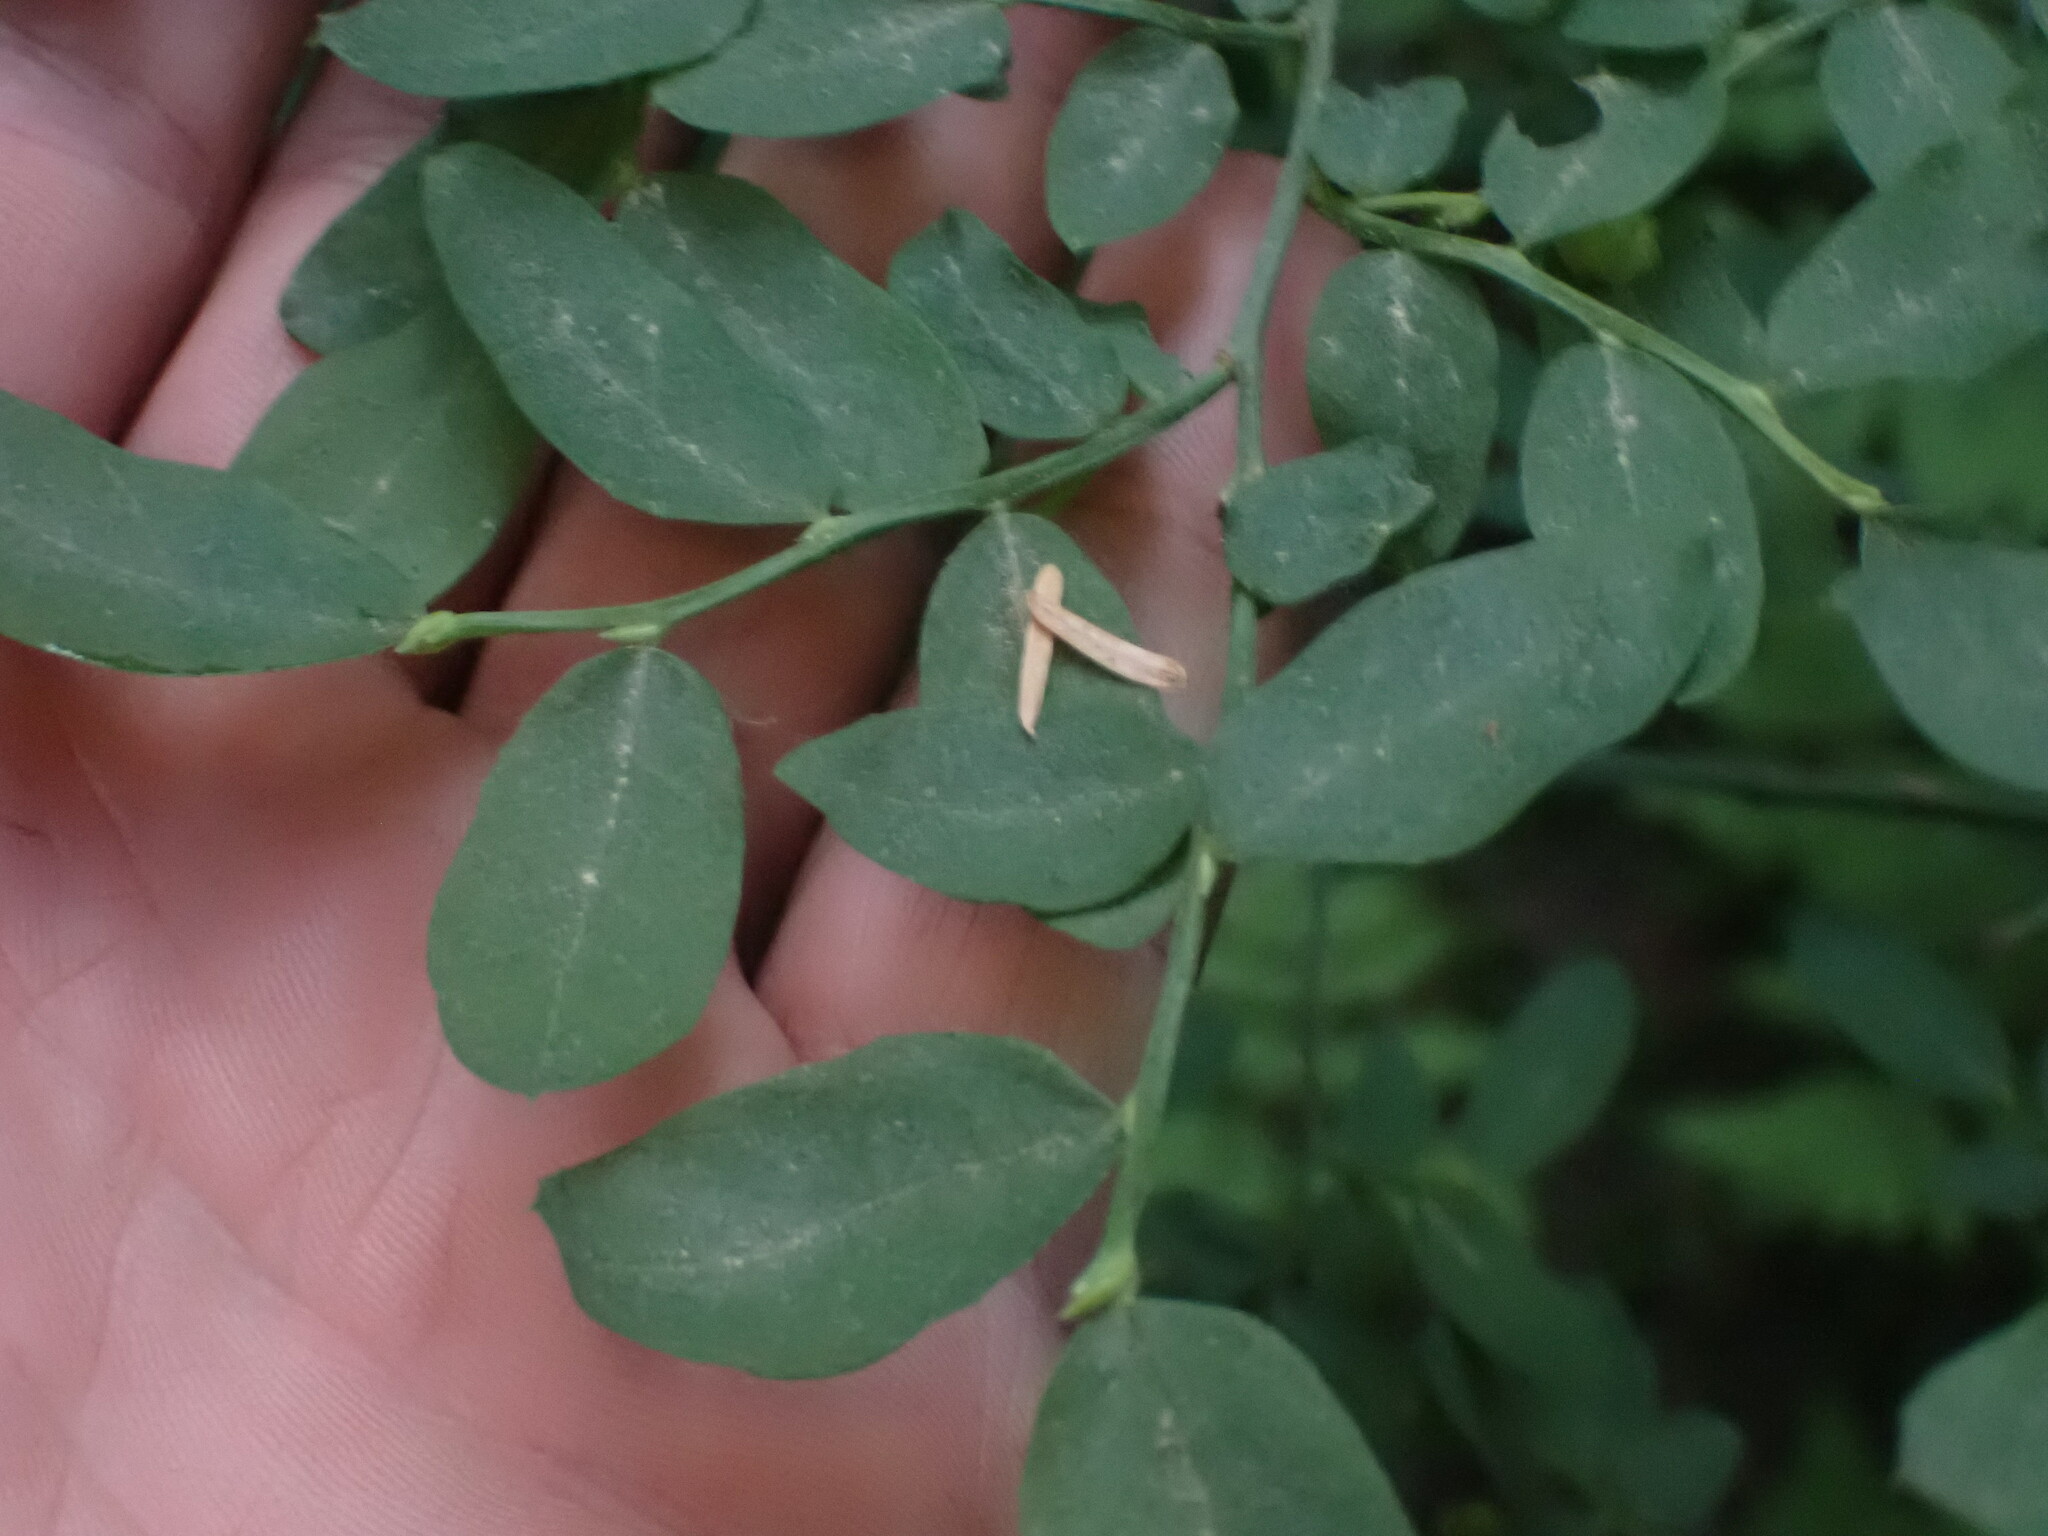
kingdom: Plantae
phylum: Tracheophyta
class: Magnoliopsida
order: Ericales
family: Ericaceae
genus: Vaccinium
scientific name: Vaccinium parvifolium
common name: Red-huckleberry
